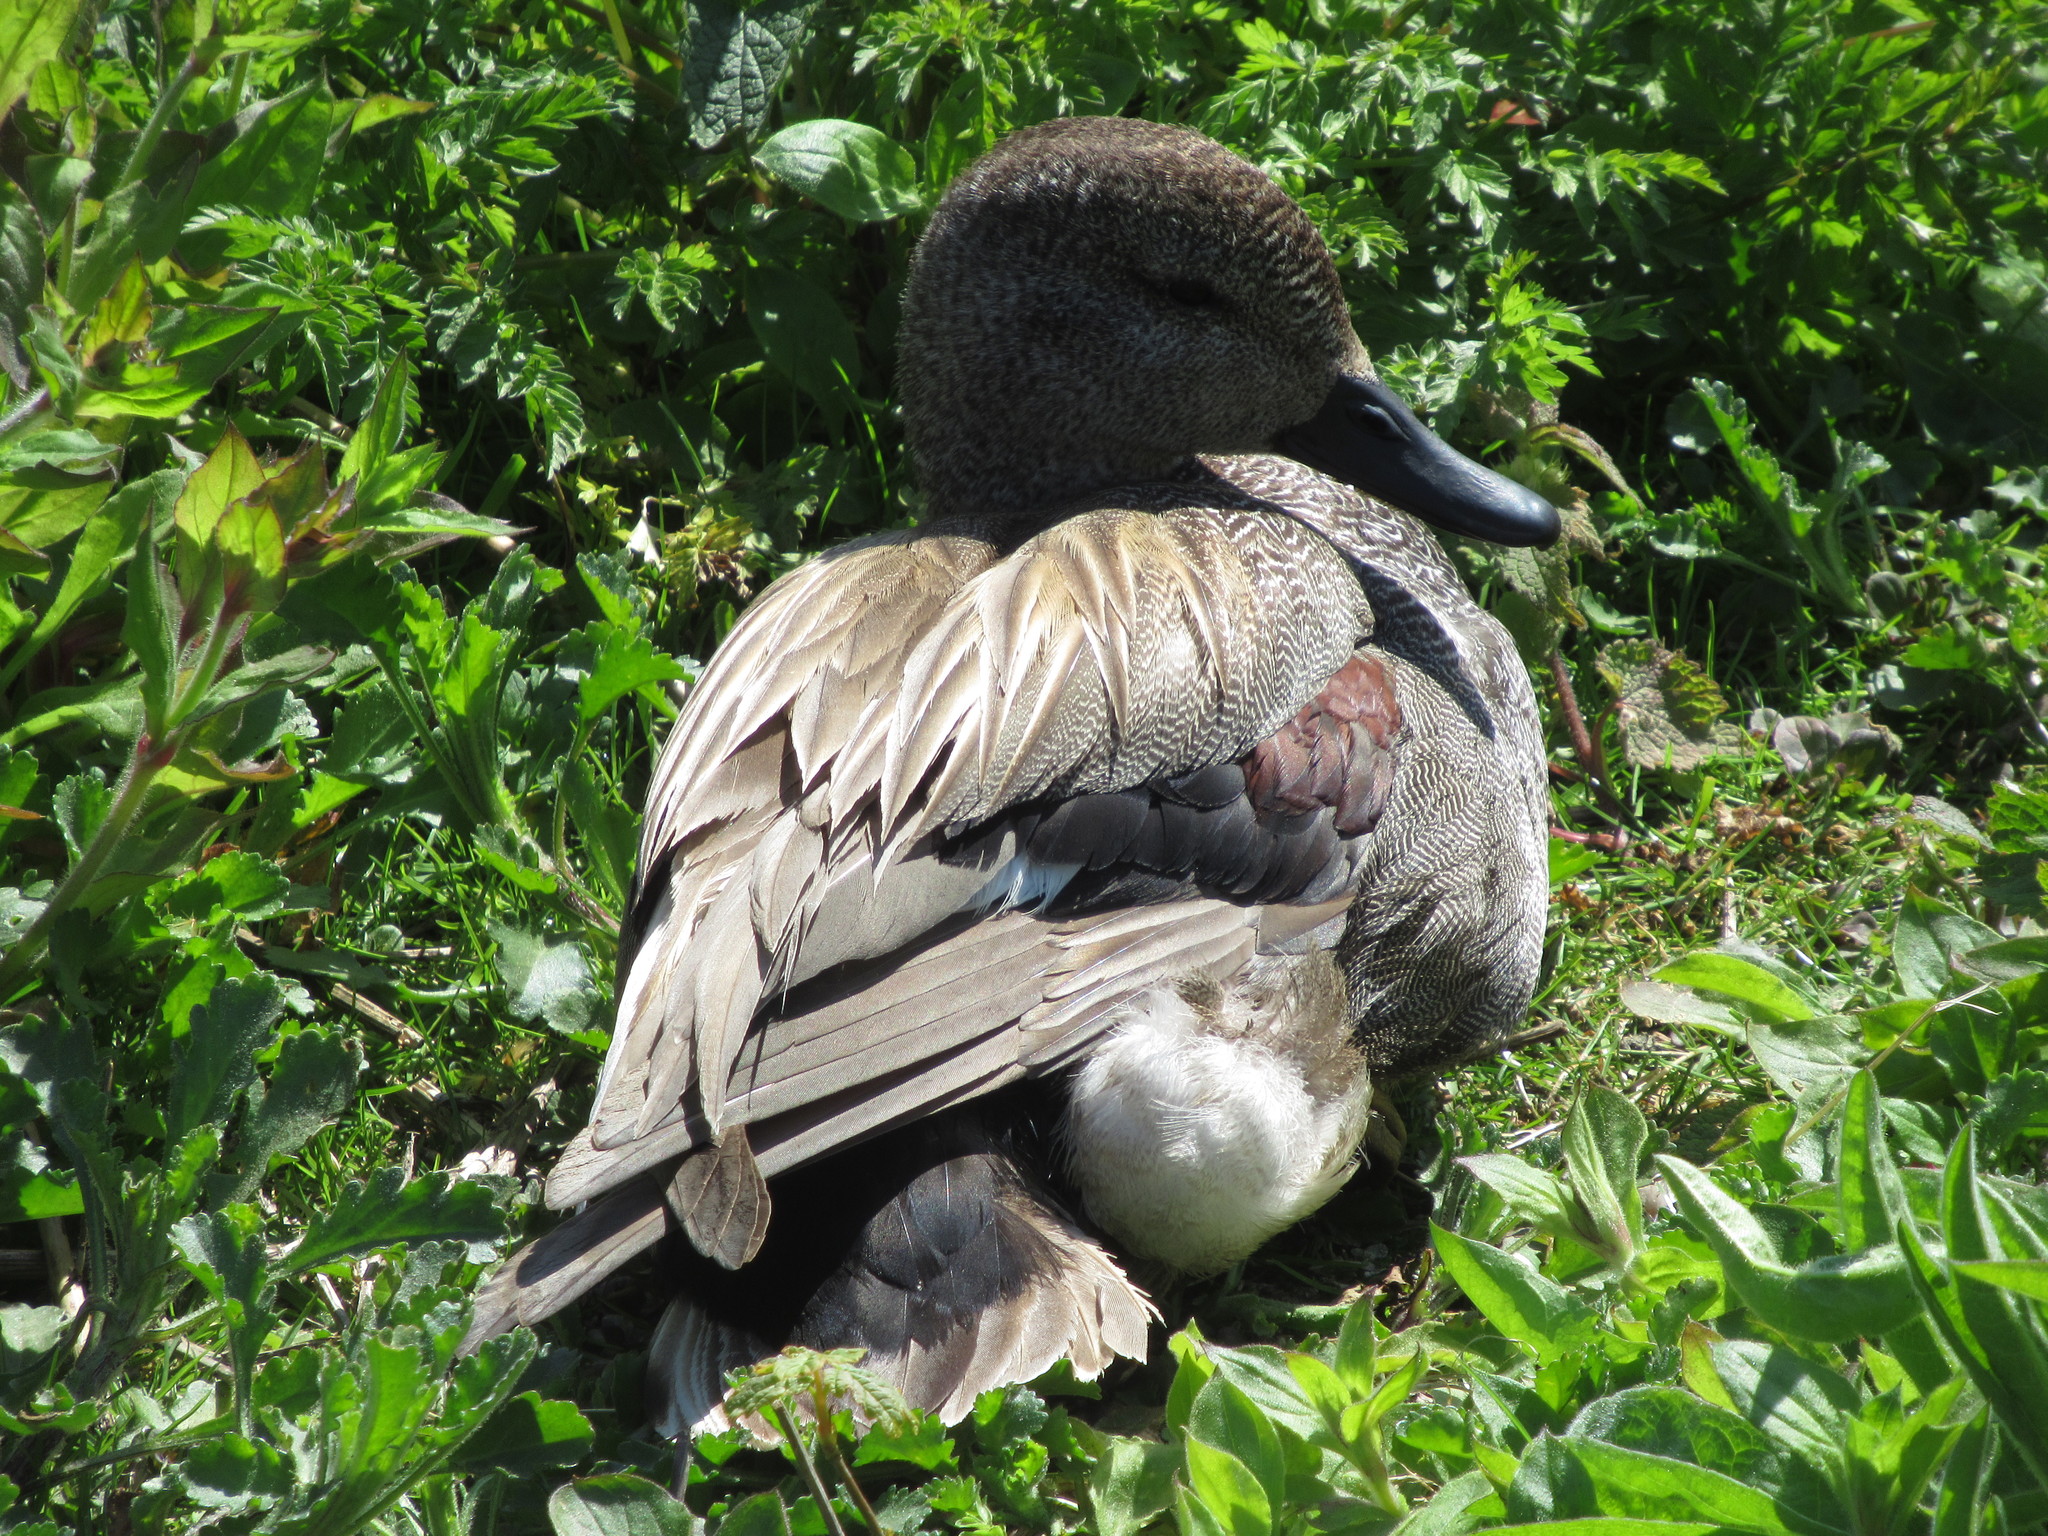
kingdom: Animalia
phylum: Chordata
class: Aves
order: Anseriformes
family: Anatidae
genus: Mareca
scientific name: Mareca strepera
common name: Gadwall
